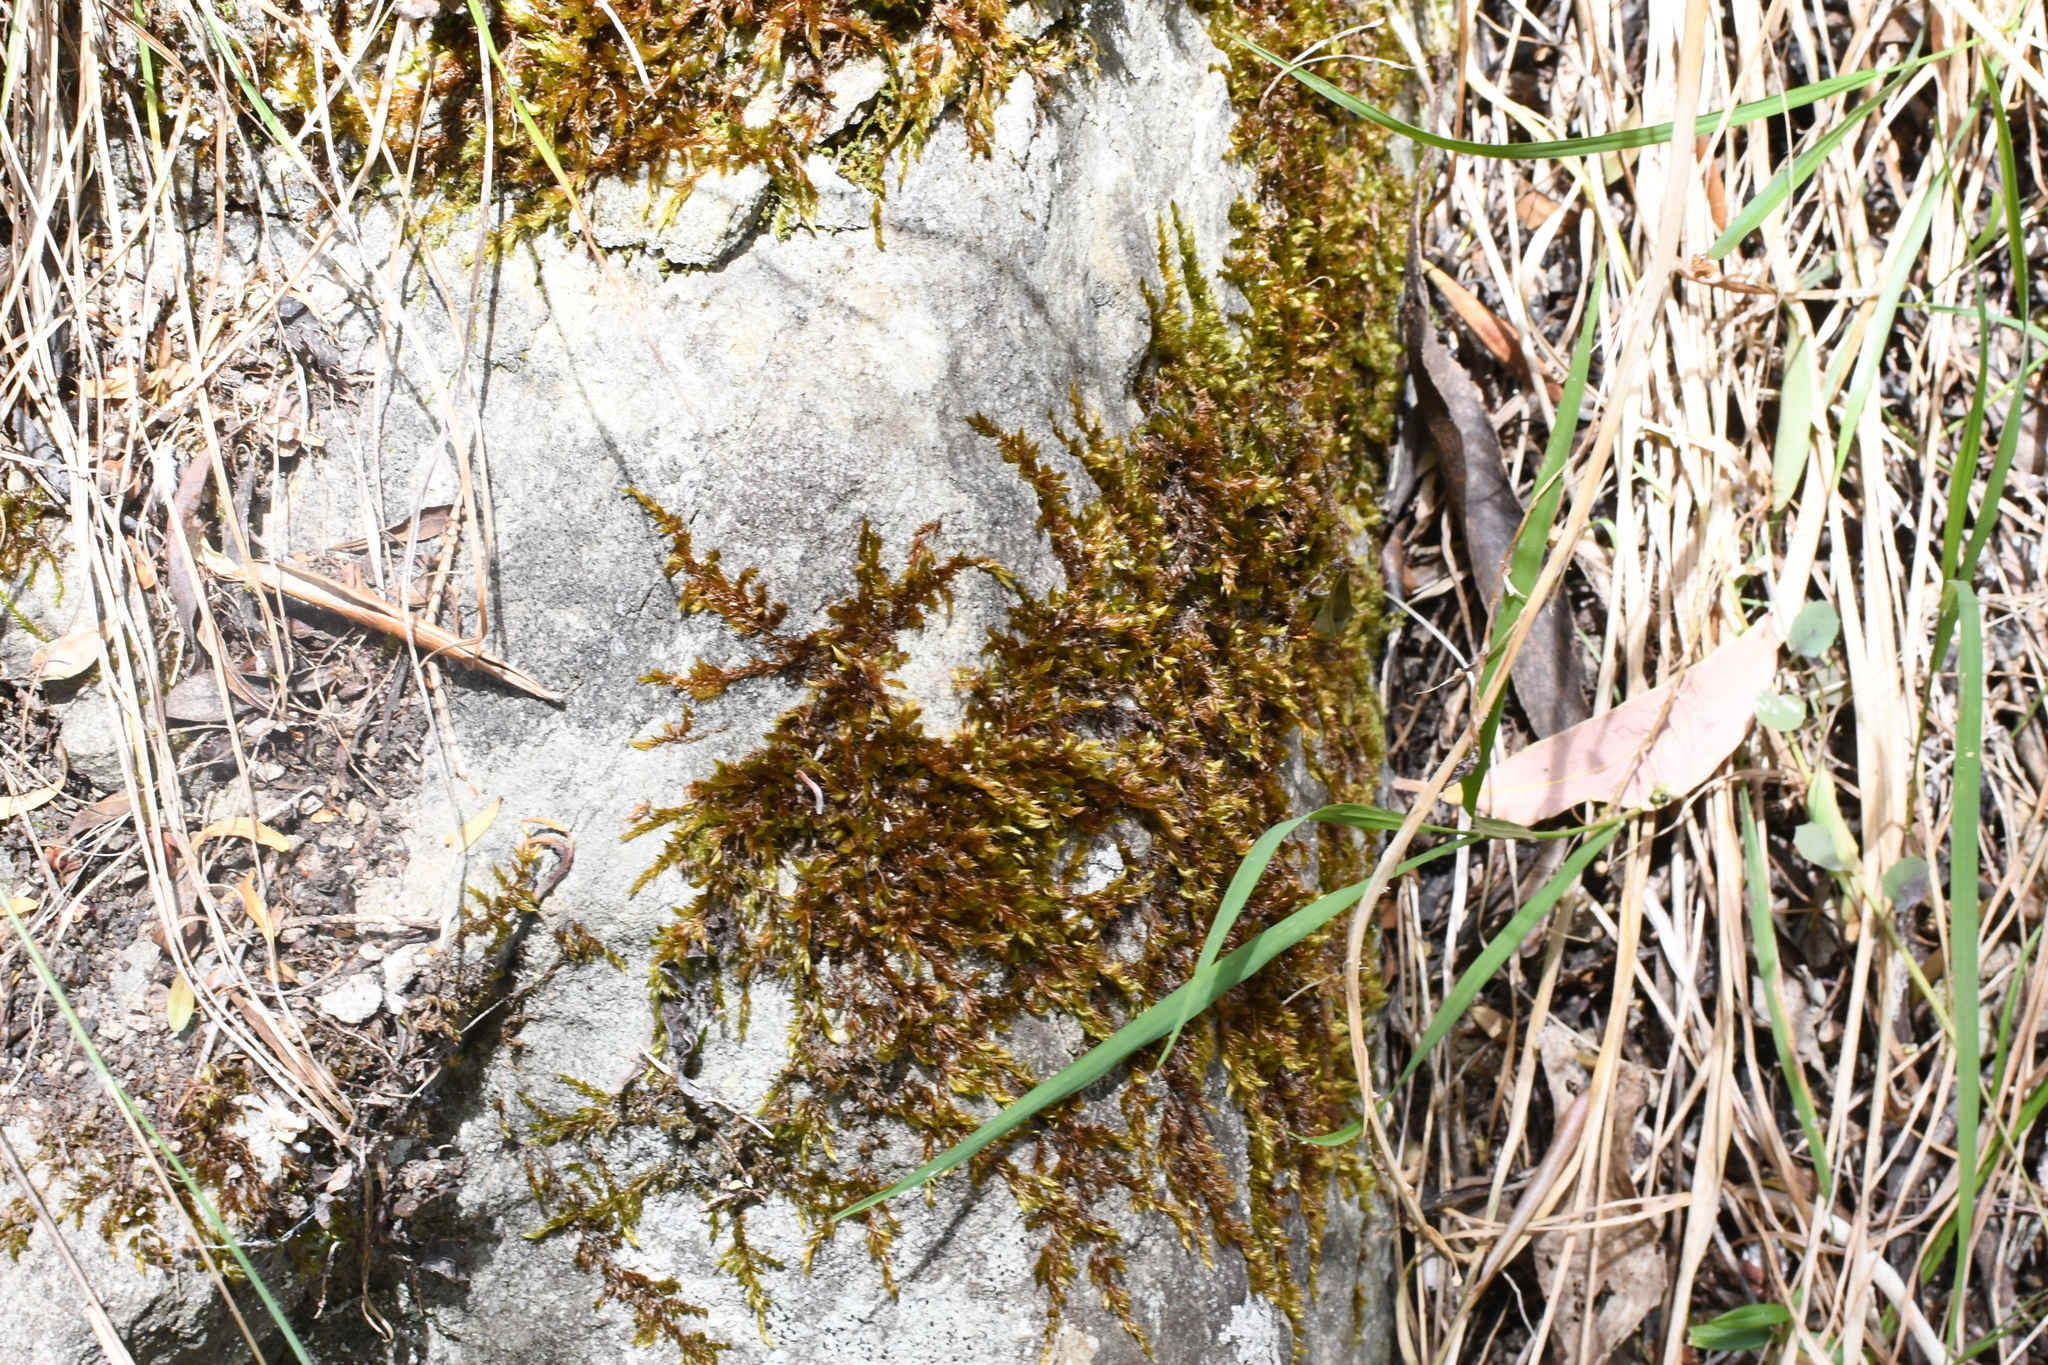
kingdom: Plantae
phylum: Bryophyta
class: Bryopsida
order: Hypnales
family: Sematophyllaceae
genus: Sematophyllum
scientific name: Sematophyllum homomallum
